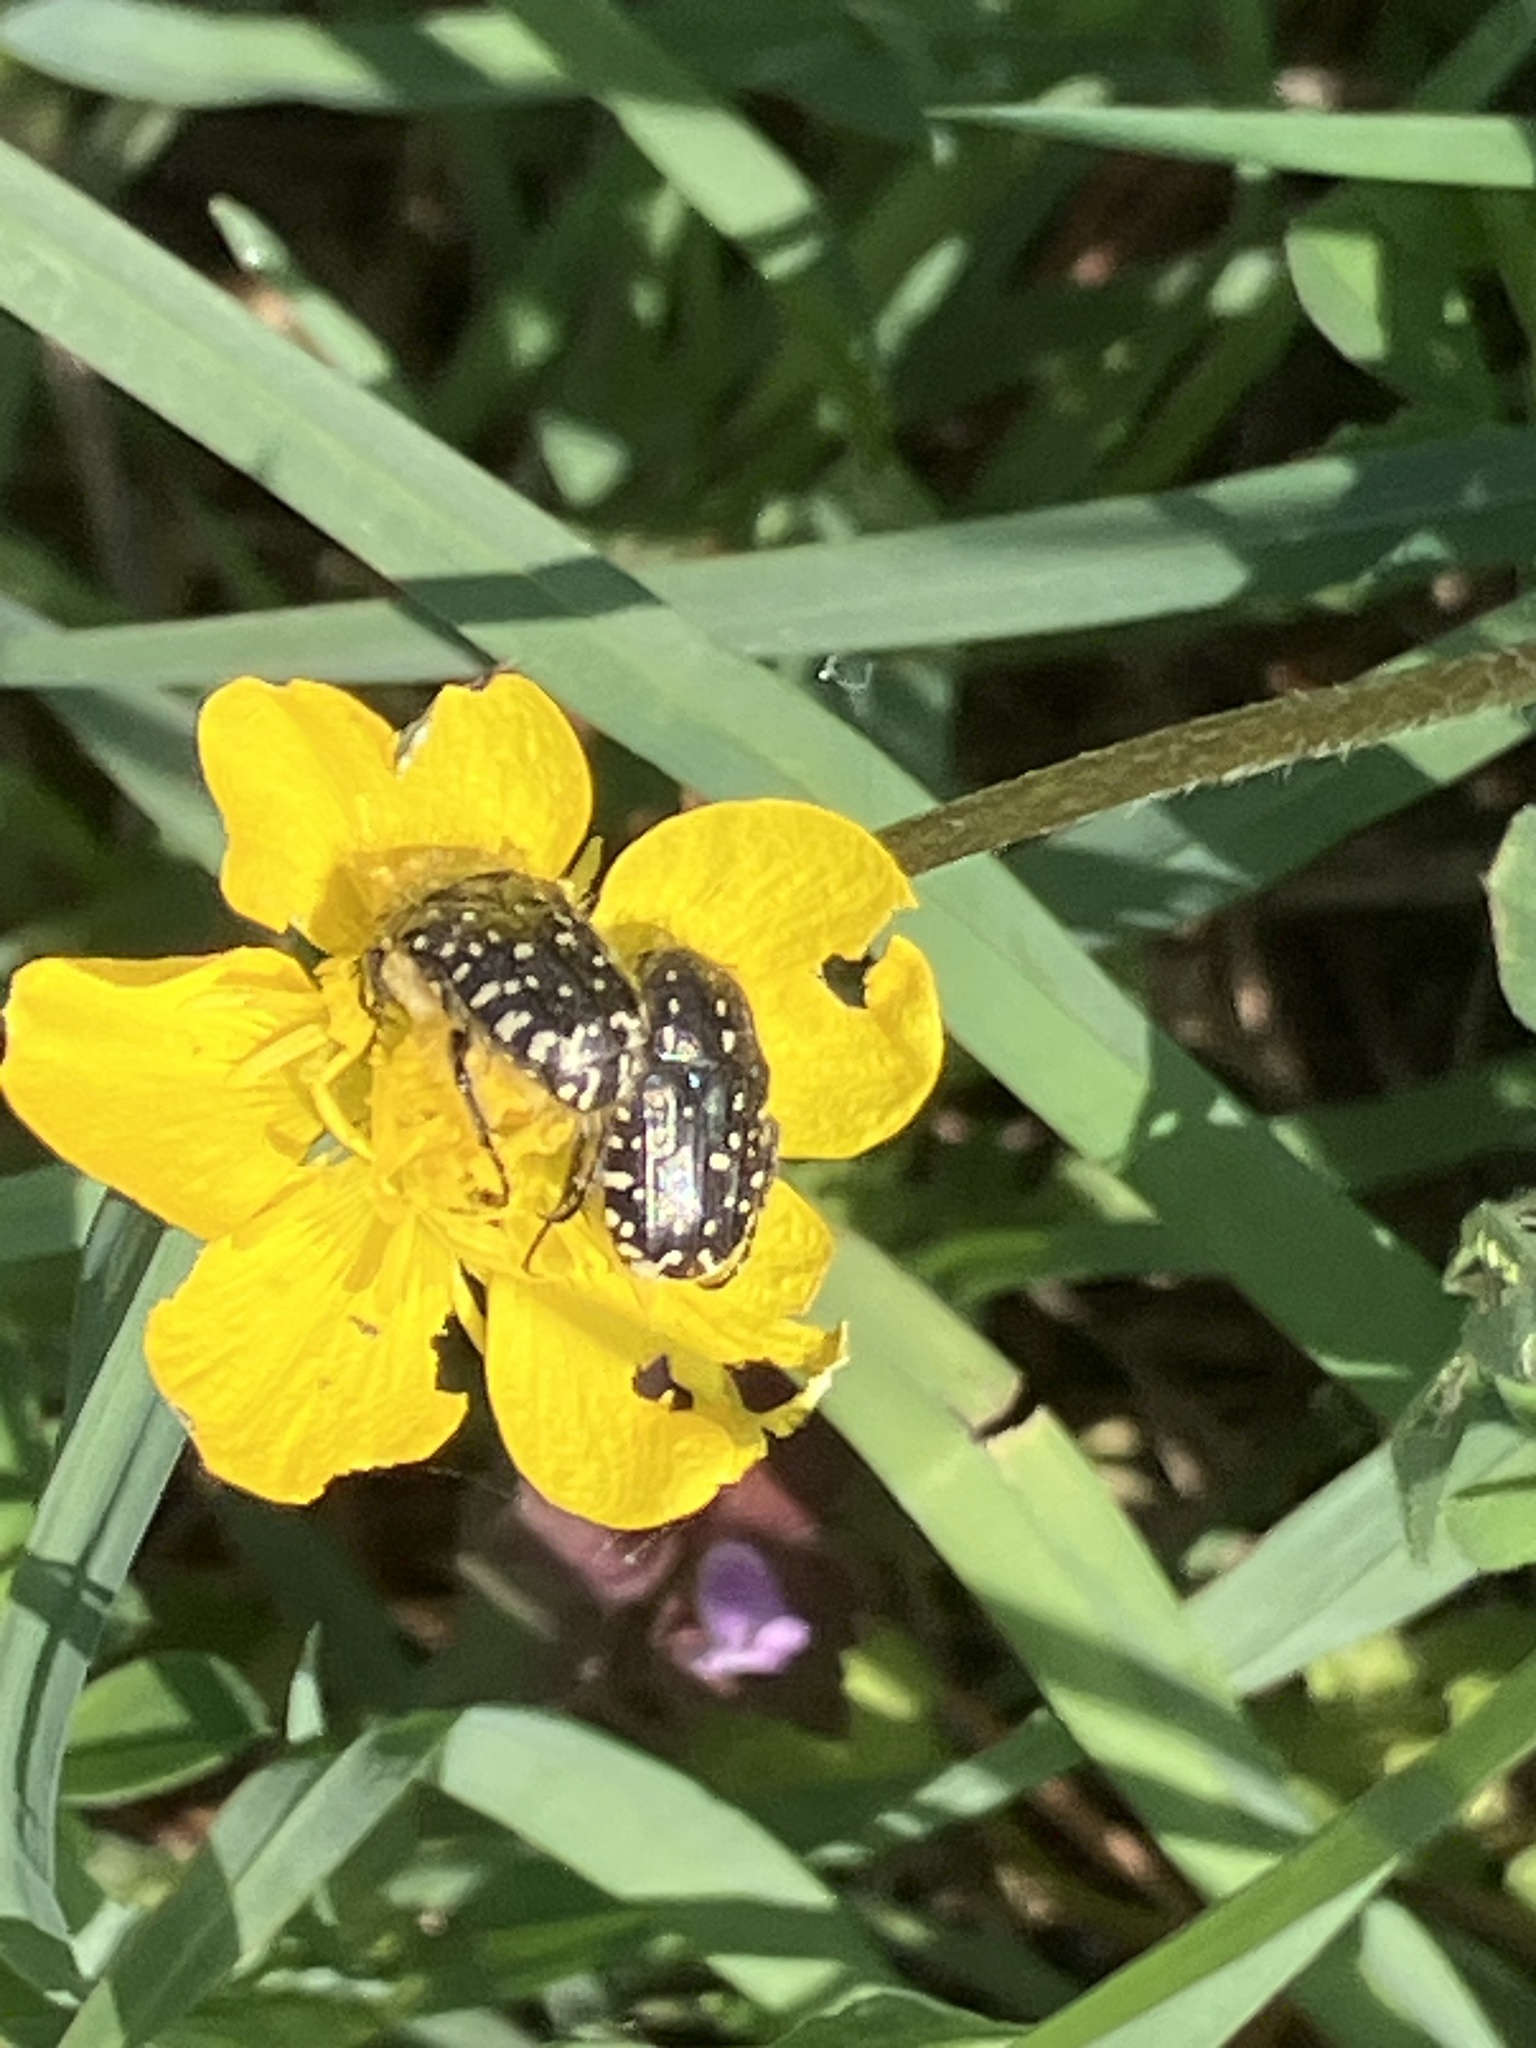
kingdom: Animalia
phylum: Arthropoda
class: Insecta
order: Coleoptera
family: Scarabaeidae
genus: Oxythyrea
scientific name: Oxythyrea funesta
